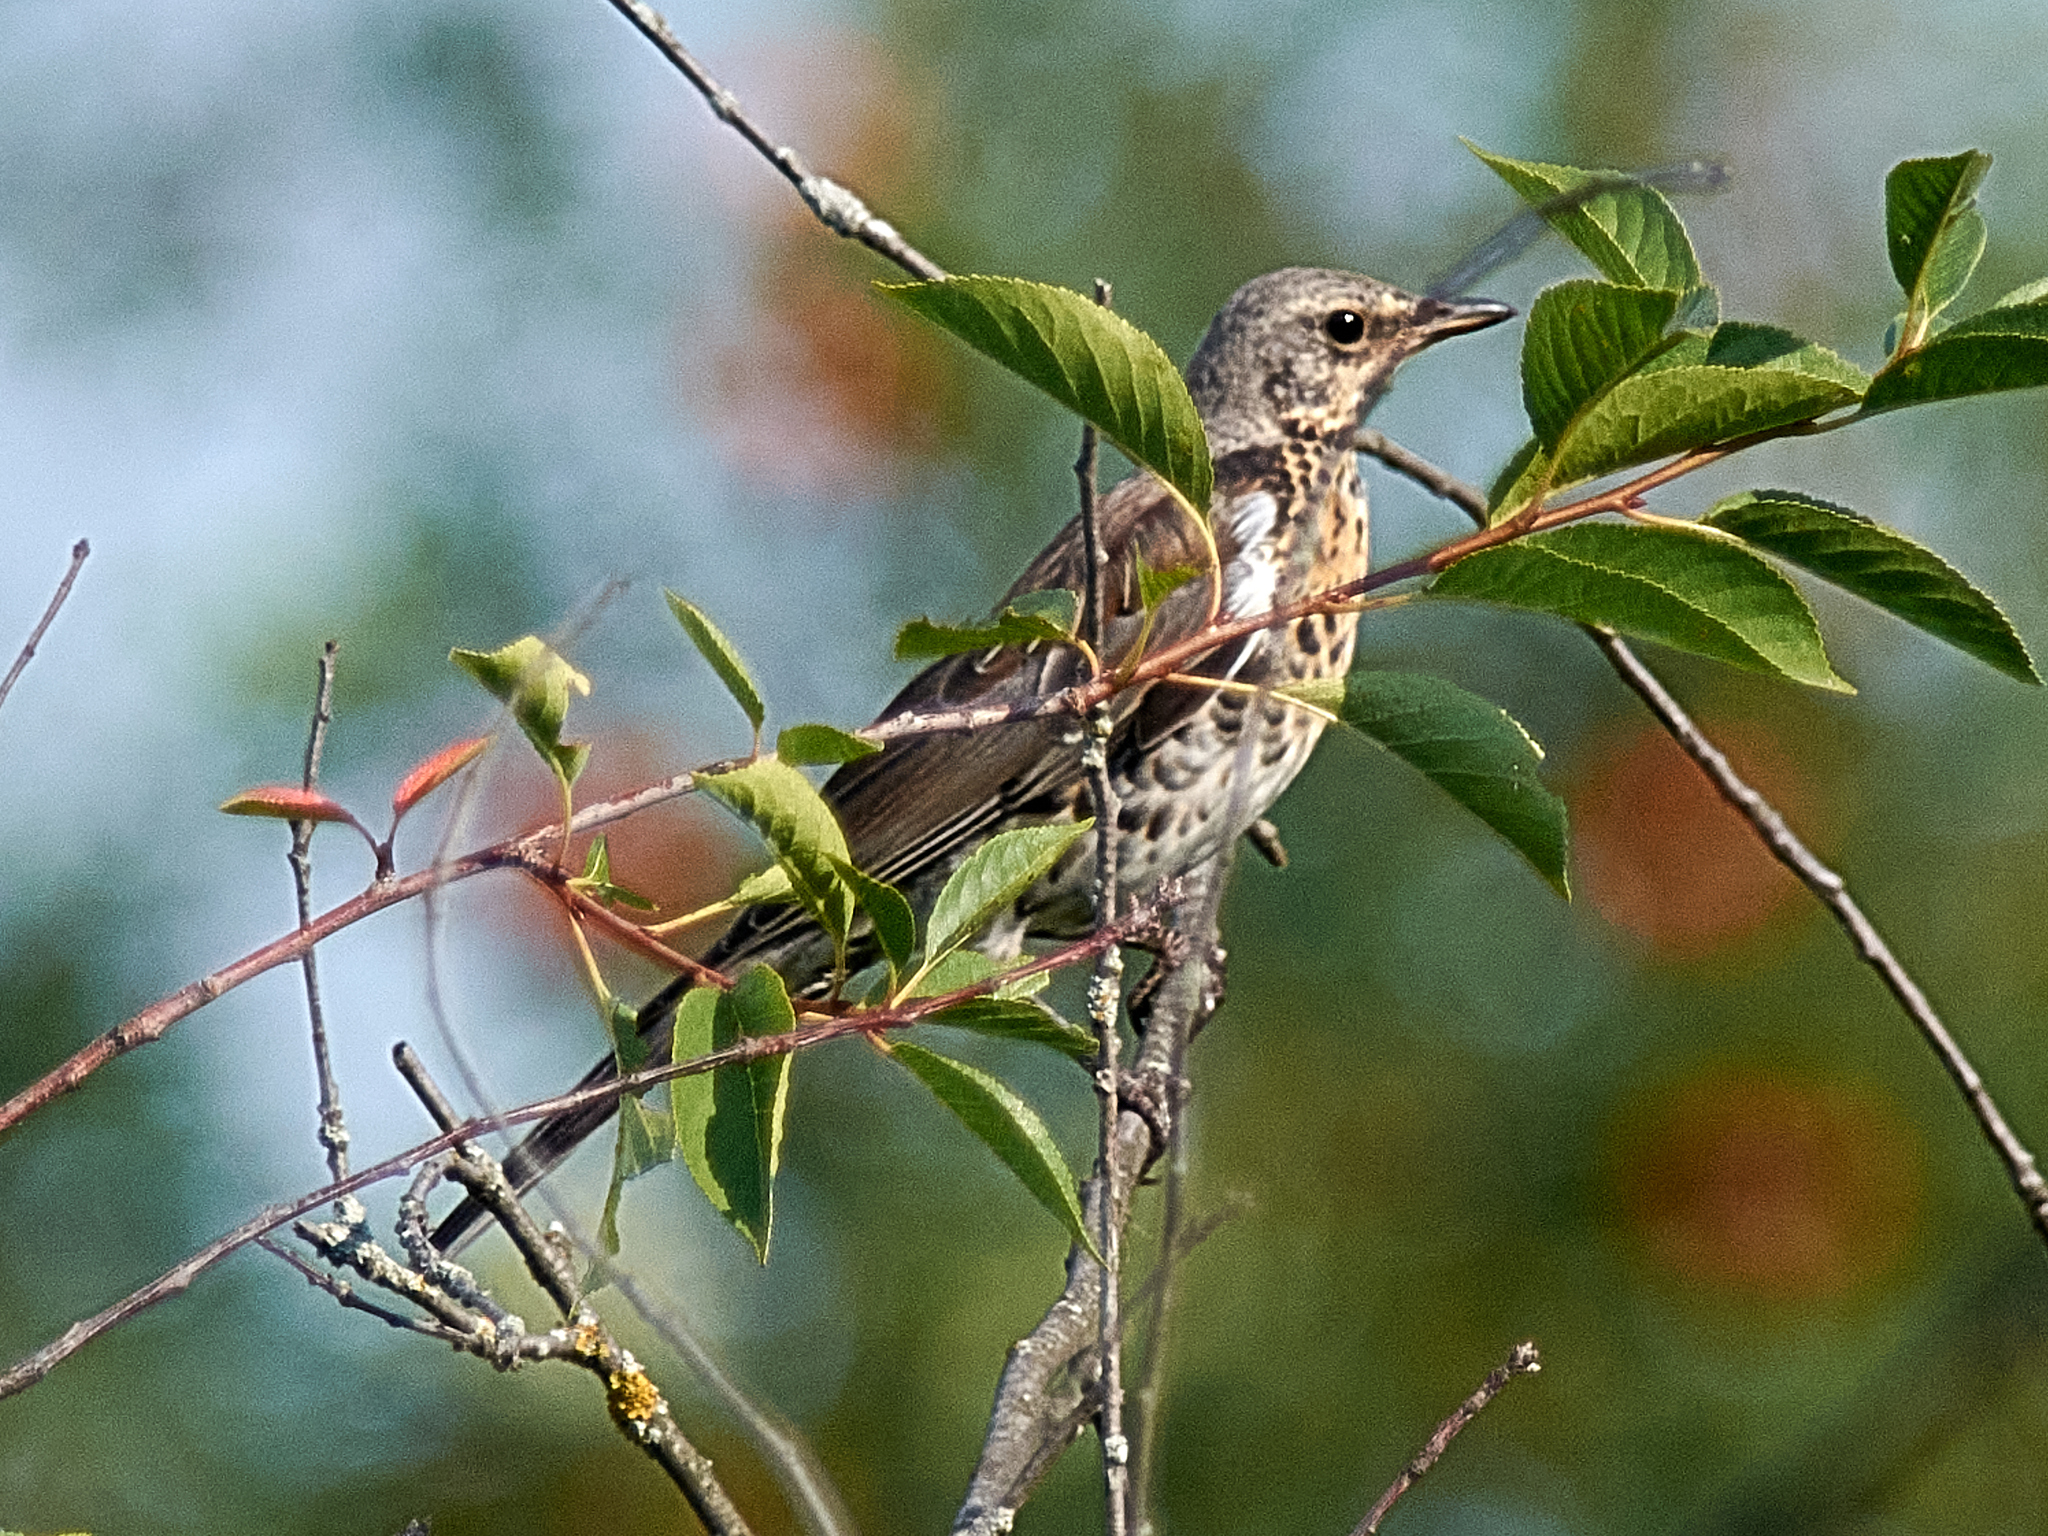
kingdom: Animalia
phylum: Chordata
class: Aves
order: Passeriformes
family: Turdidae
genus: Turdus
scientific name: Turdus pilaris
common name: Fieldfare
